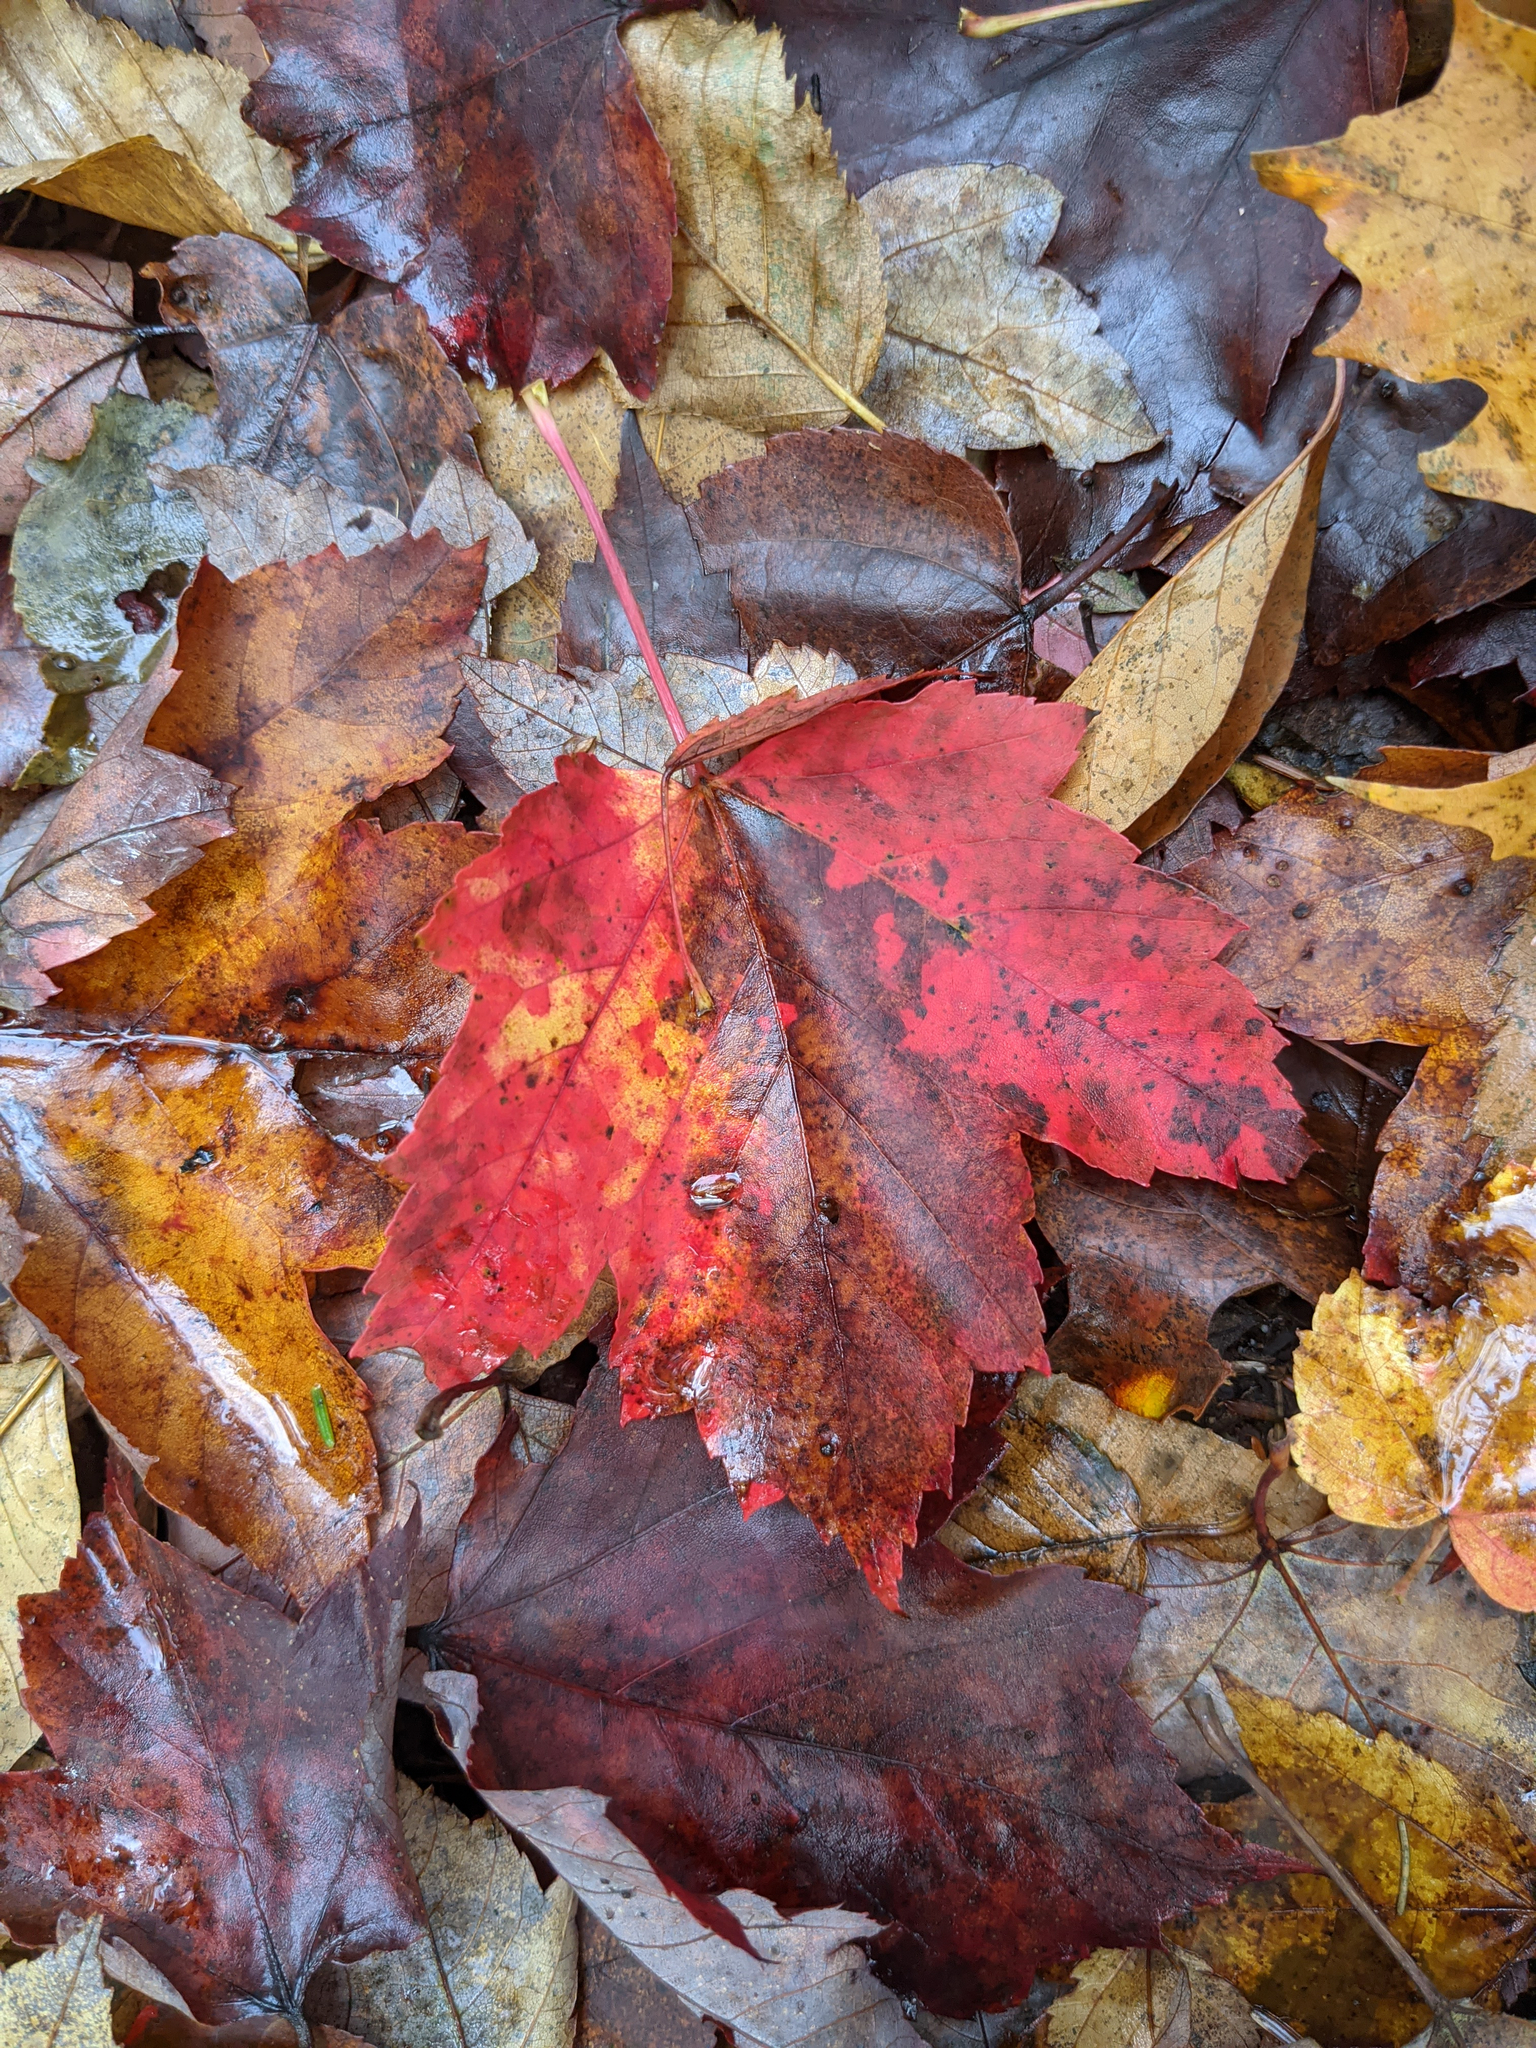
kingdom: Plantae
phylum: Tracheophyta
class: Magnoliopsida
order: Sapindales
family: Sapindaceae
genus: Acer
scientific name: Acer rubrum
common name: Red maple
